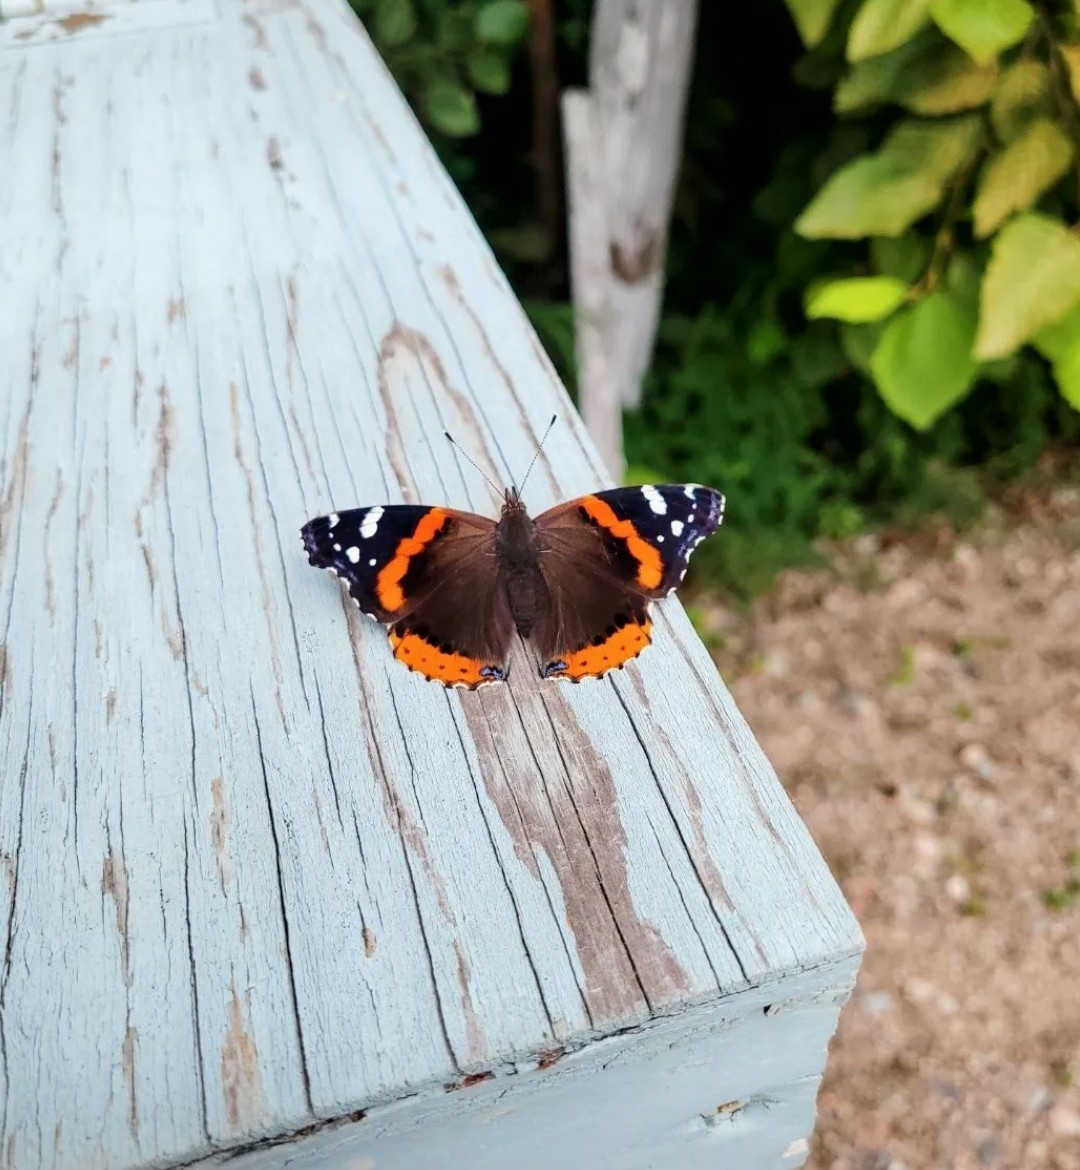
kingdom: Animalia
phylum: Arthropoda
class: Insecta
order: Lepidoptera
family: Nymphalidae
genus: Vanessa
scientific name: Vanessa atalanta
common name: Red admiral
